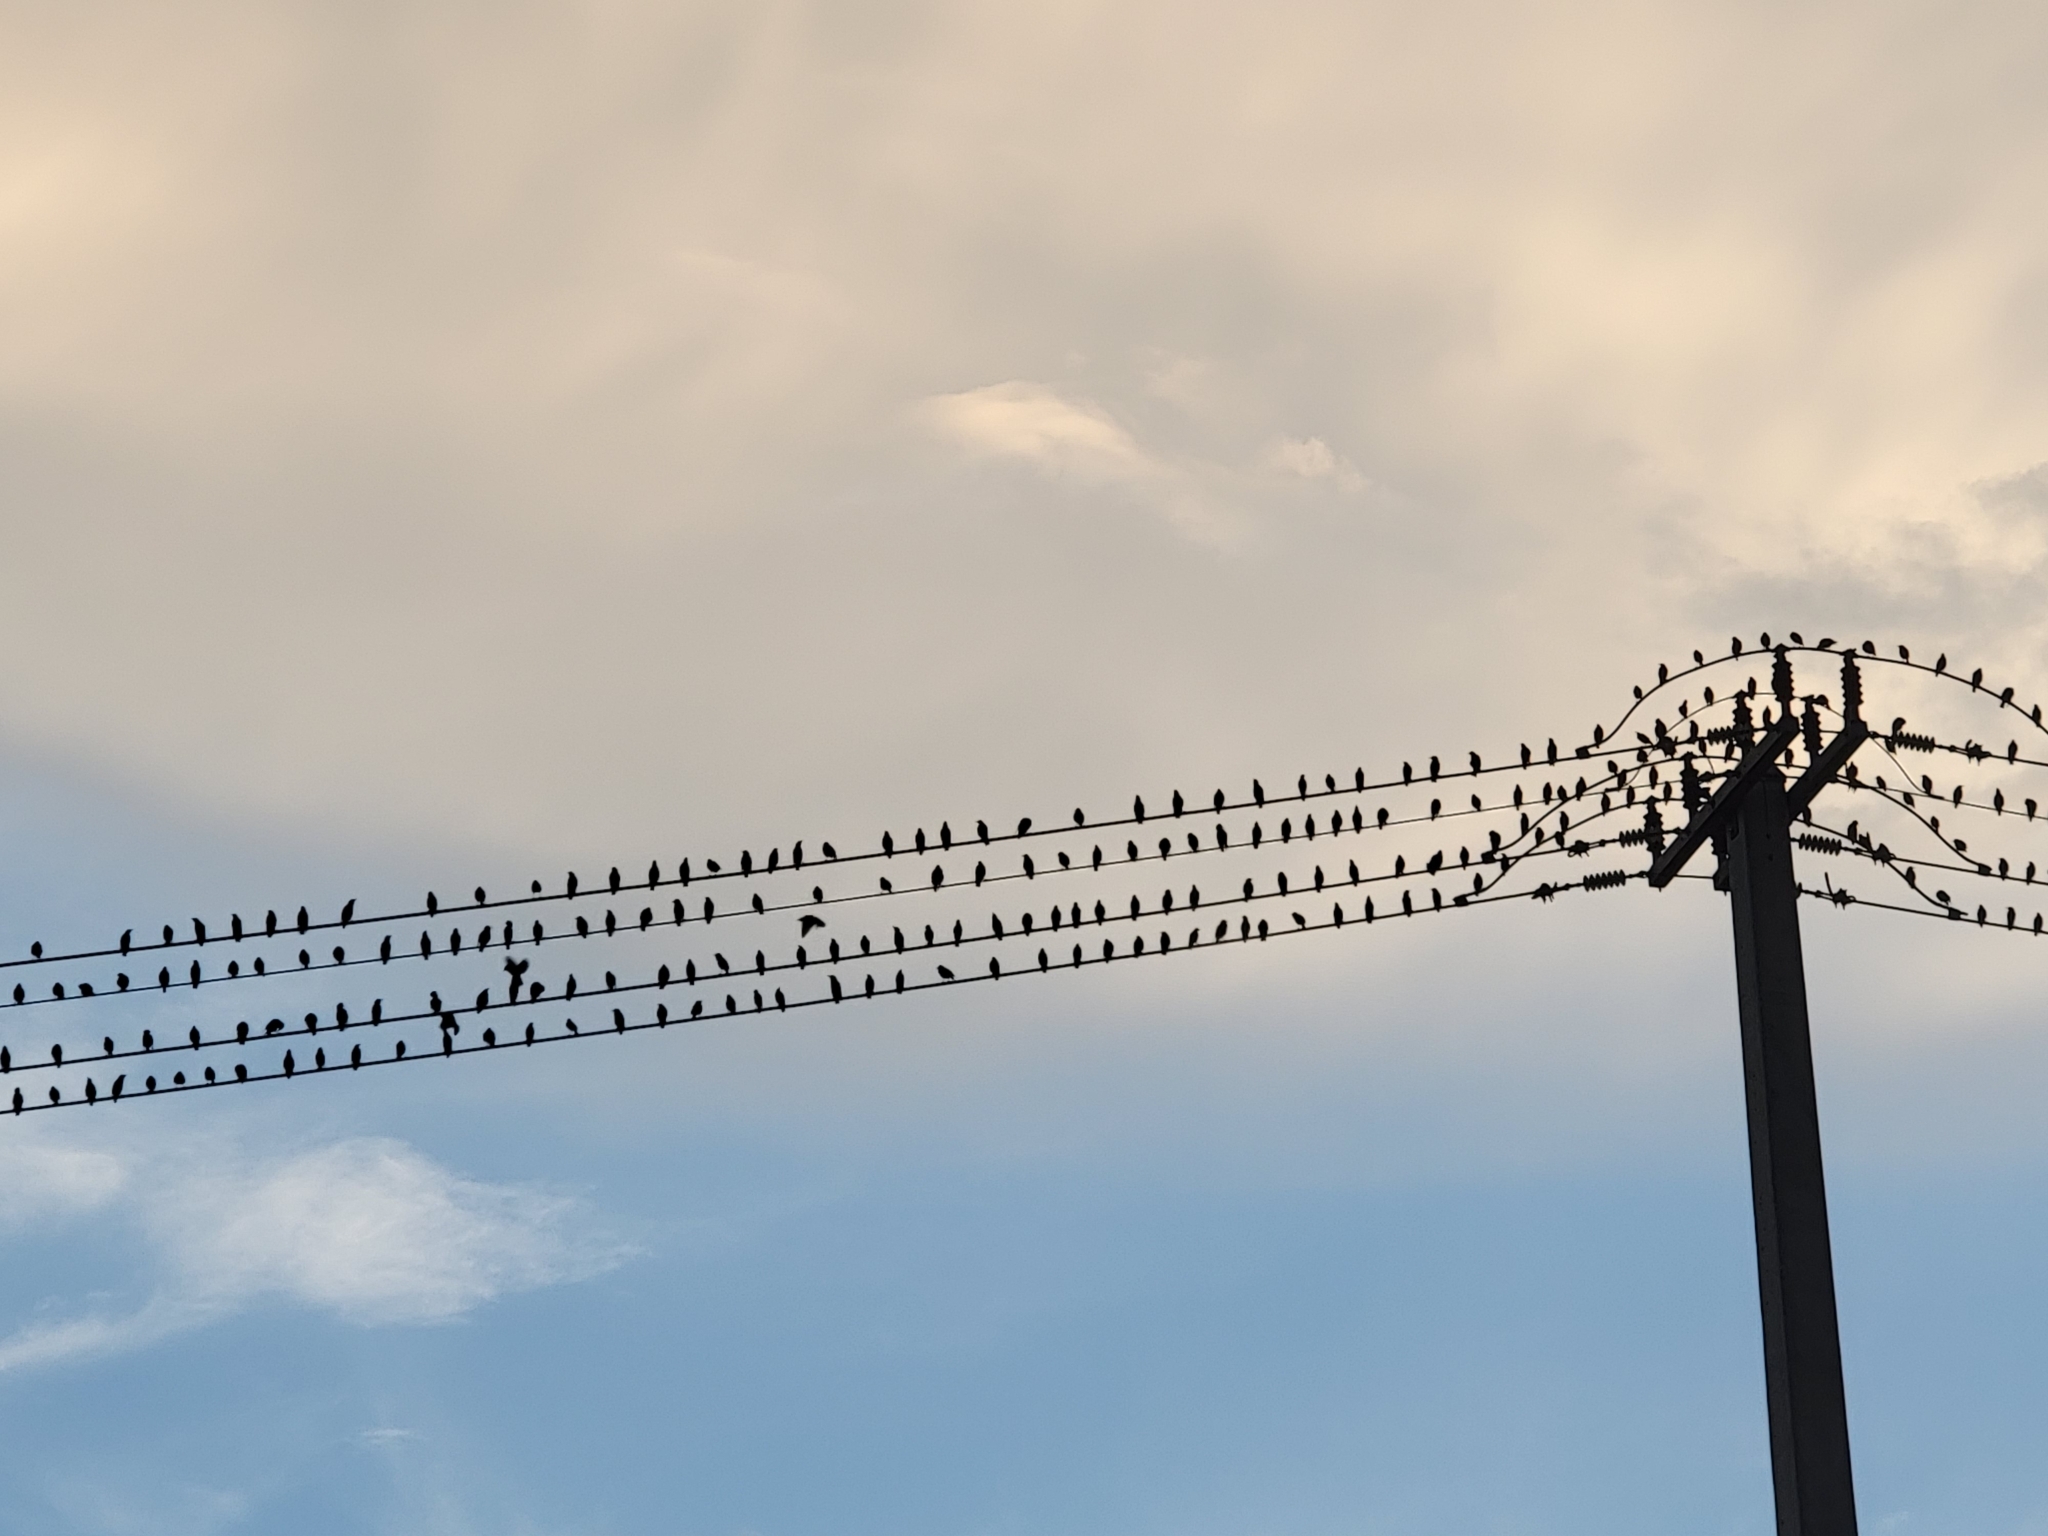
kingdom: Animalia
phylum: Chordata
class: Aves
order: Passeriformes
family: Sturnidae
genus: Sturnus
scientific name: Sturnus vulgaris
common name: Common starling
